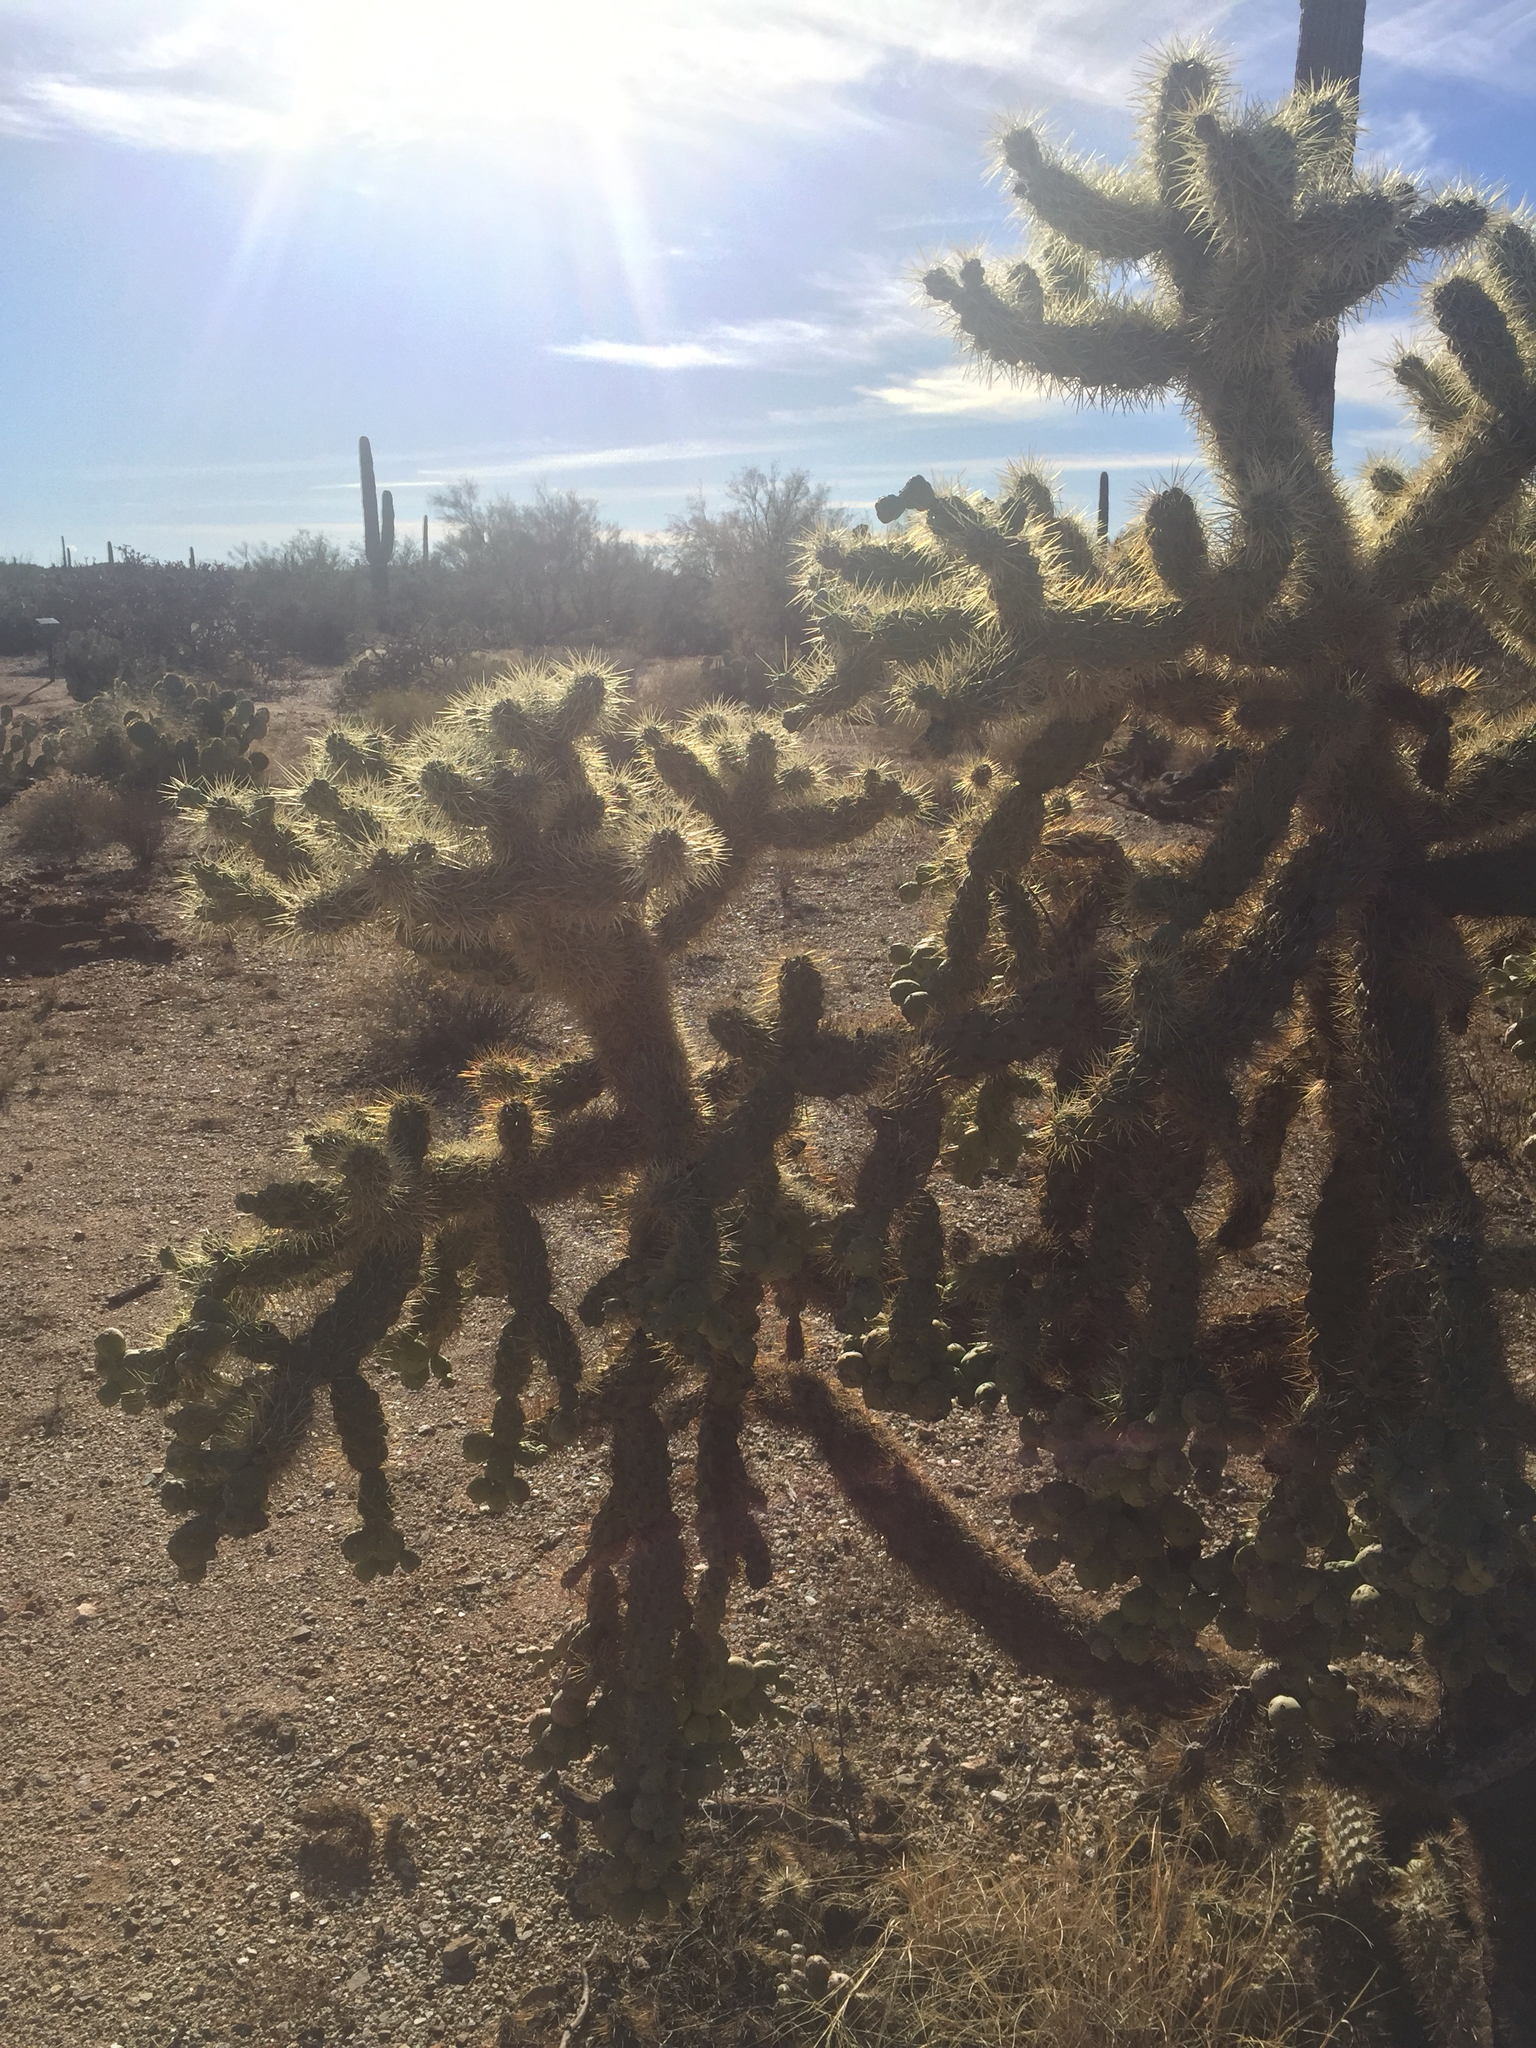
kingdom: Plantae
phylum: Tracheophyta
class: Magnoliopsida
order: Caryophyllales
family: Cactaceae
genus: Cylindropuntia
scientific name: Cylindropuntia fulgida
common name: Jumping cholla
